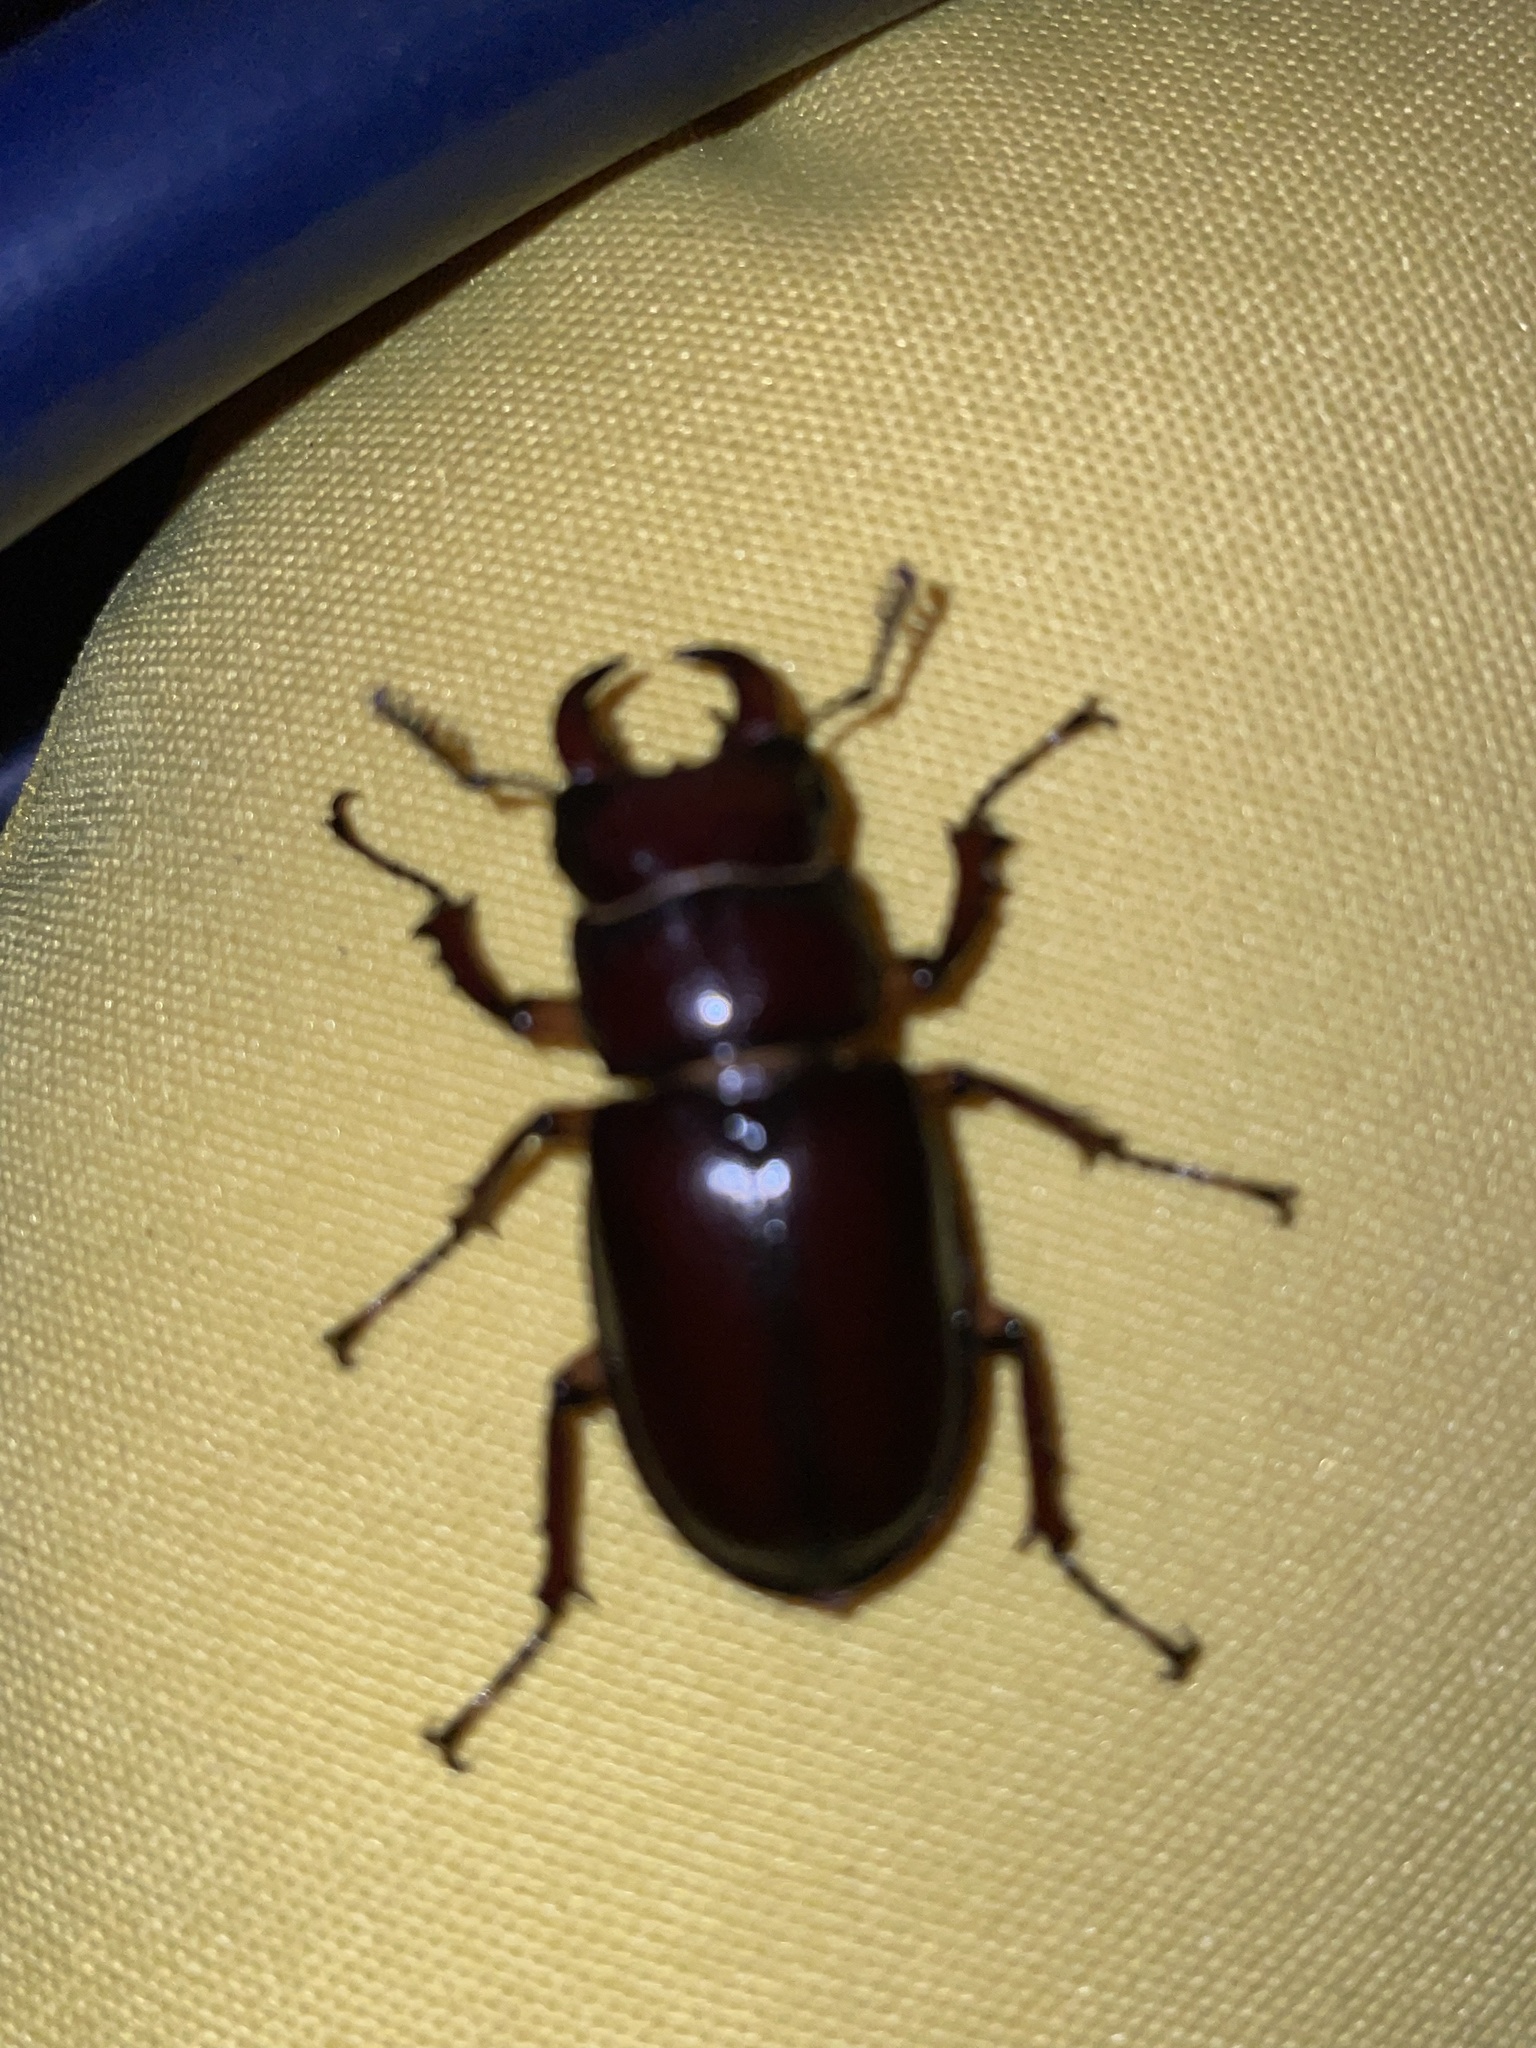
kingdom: Animalia
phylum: Arthropoda
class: Insecta
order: Coleoptera
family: Lucanidae
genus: Lucanus
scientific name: Lucanus capreolus
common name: Stag beetle
